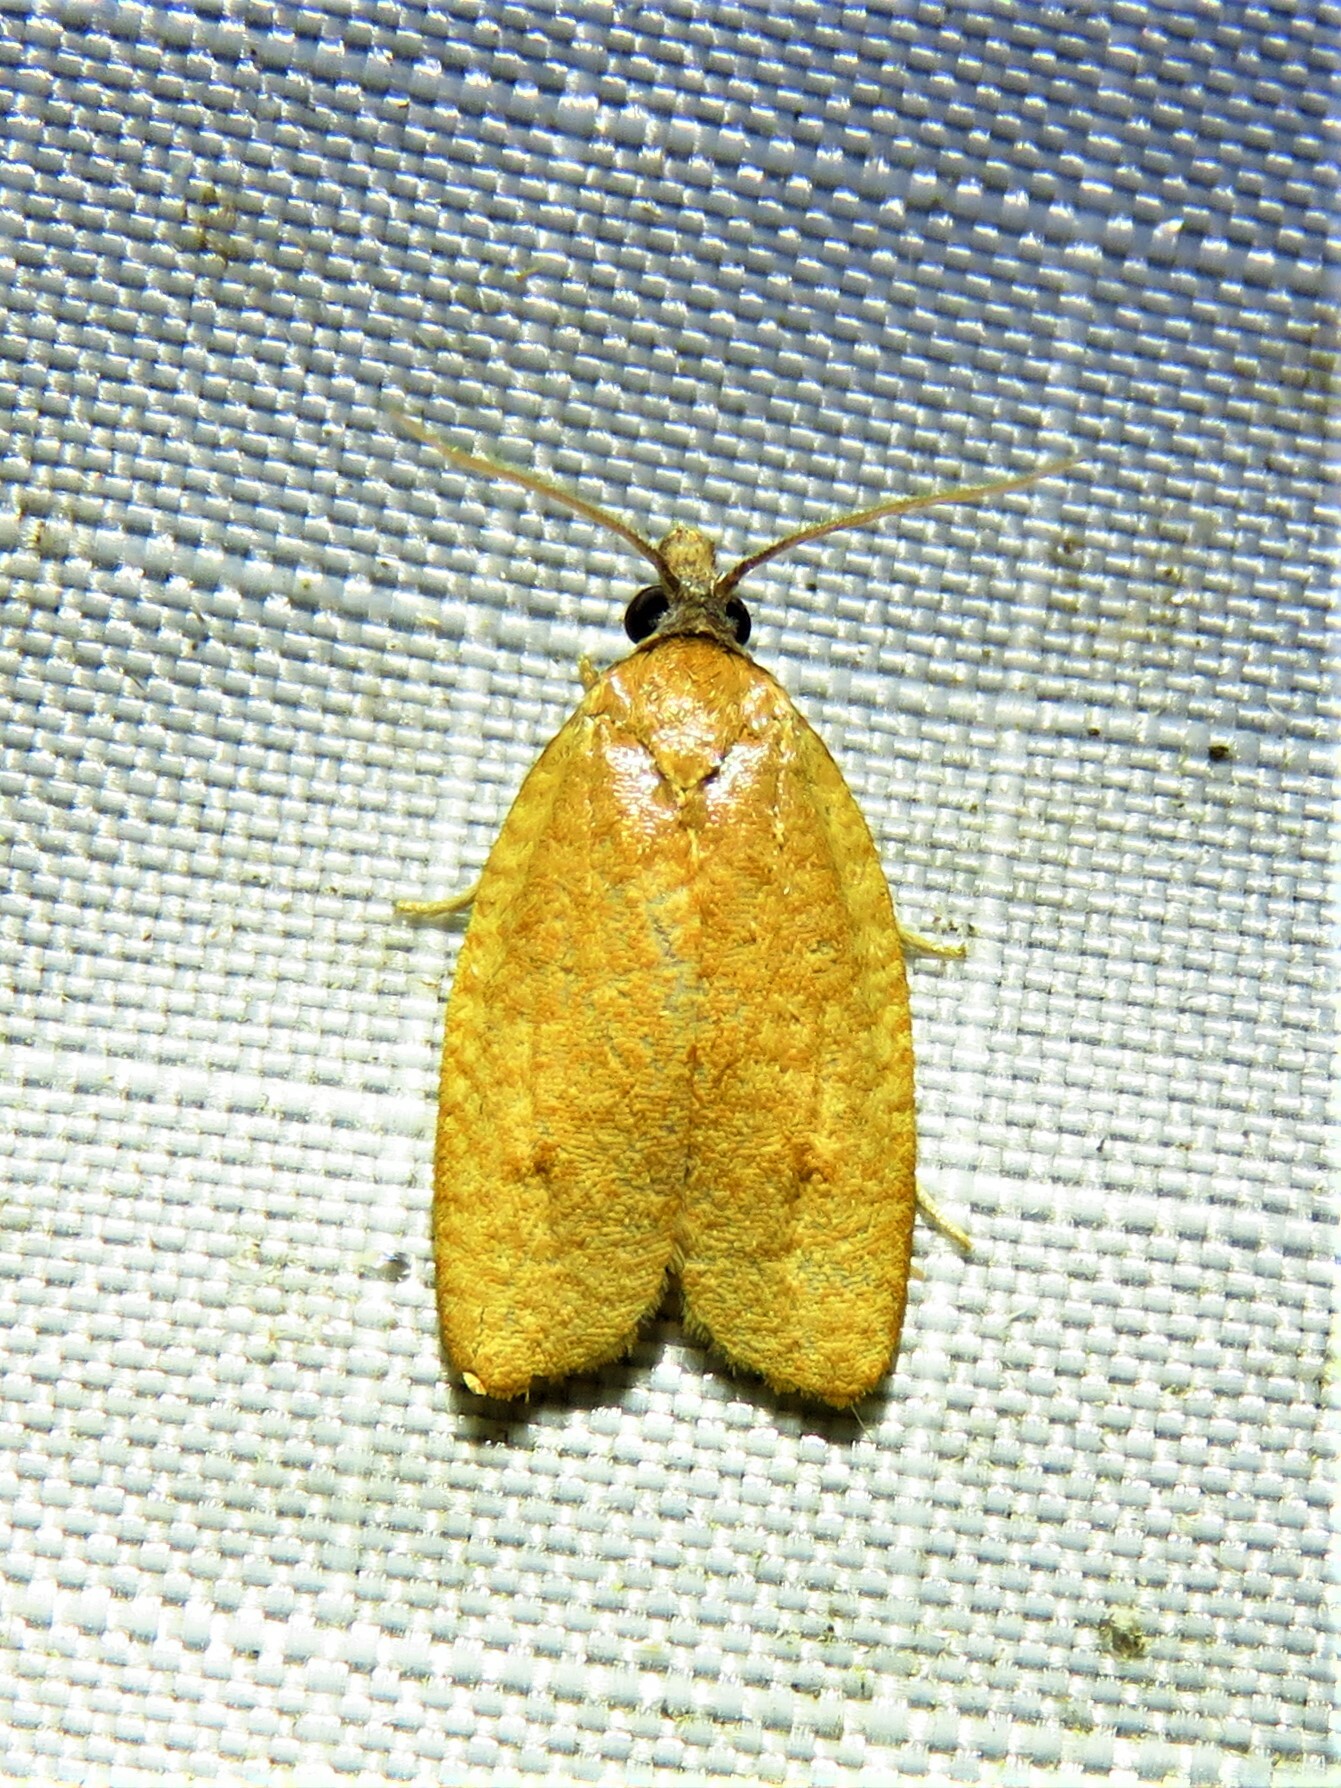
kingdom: Animalia
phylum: Arthropoda
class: Insecta
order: Lepidoptera
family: Tortricidae
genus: Sparganothis
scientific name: Sparganothis demissana
